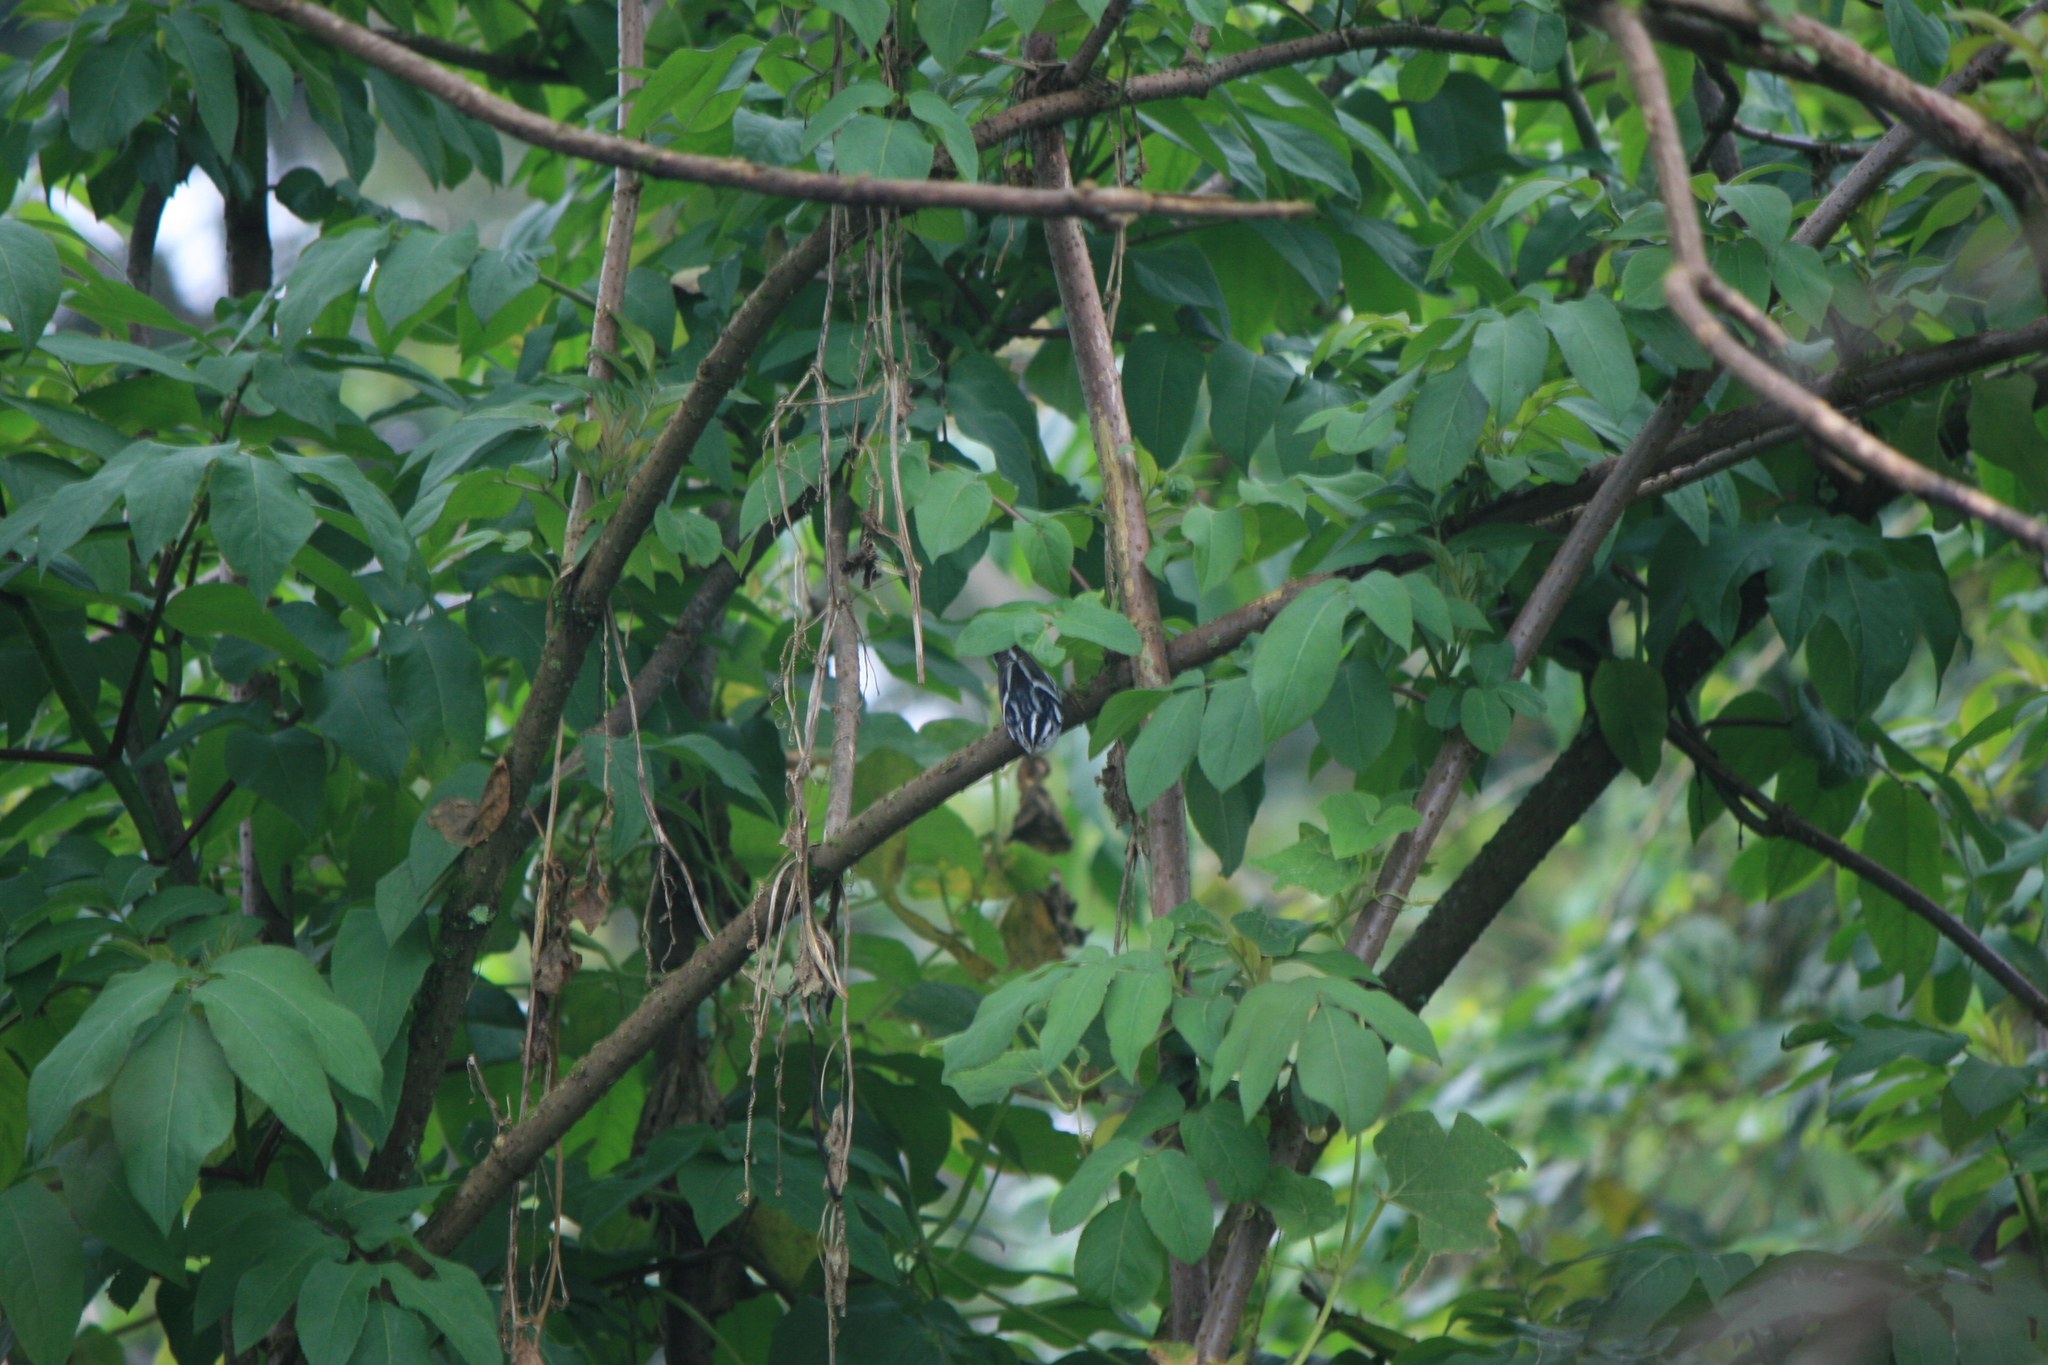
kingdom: Animalia
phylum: Chordata
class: Aves
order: Passeriformes
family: Parulidae
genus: Mniotilta
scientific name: Mniotilta varia
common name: Black-and-white warbler
